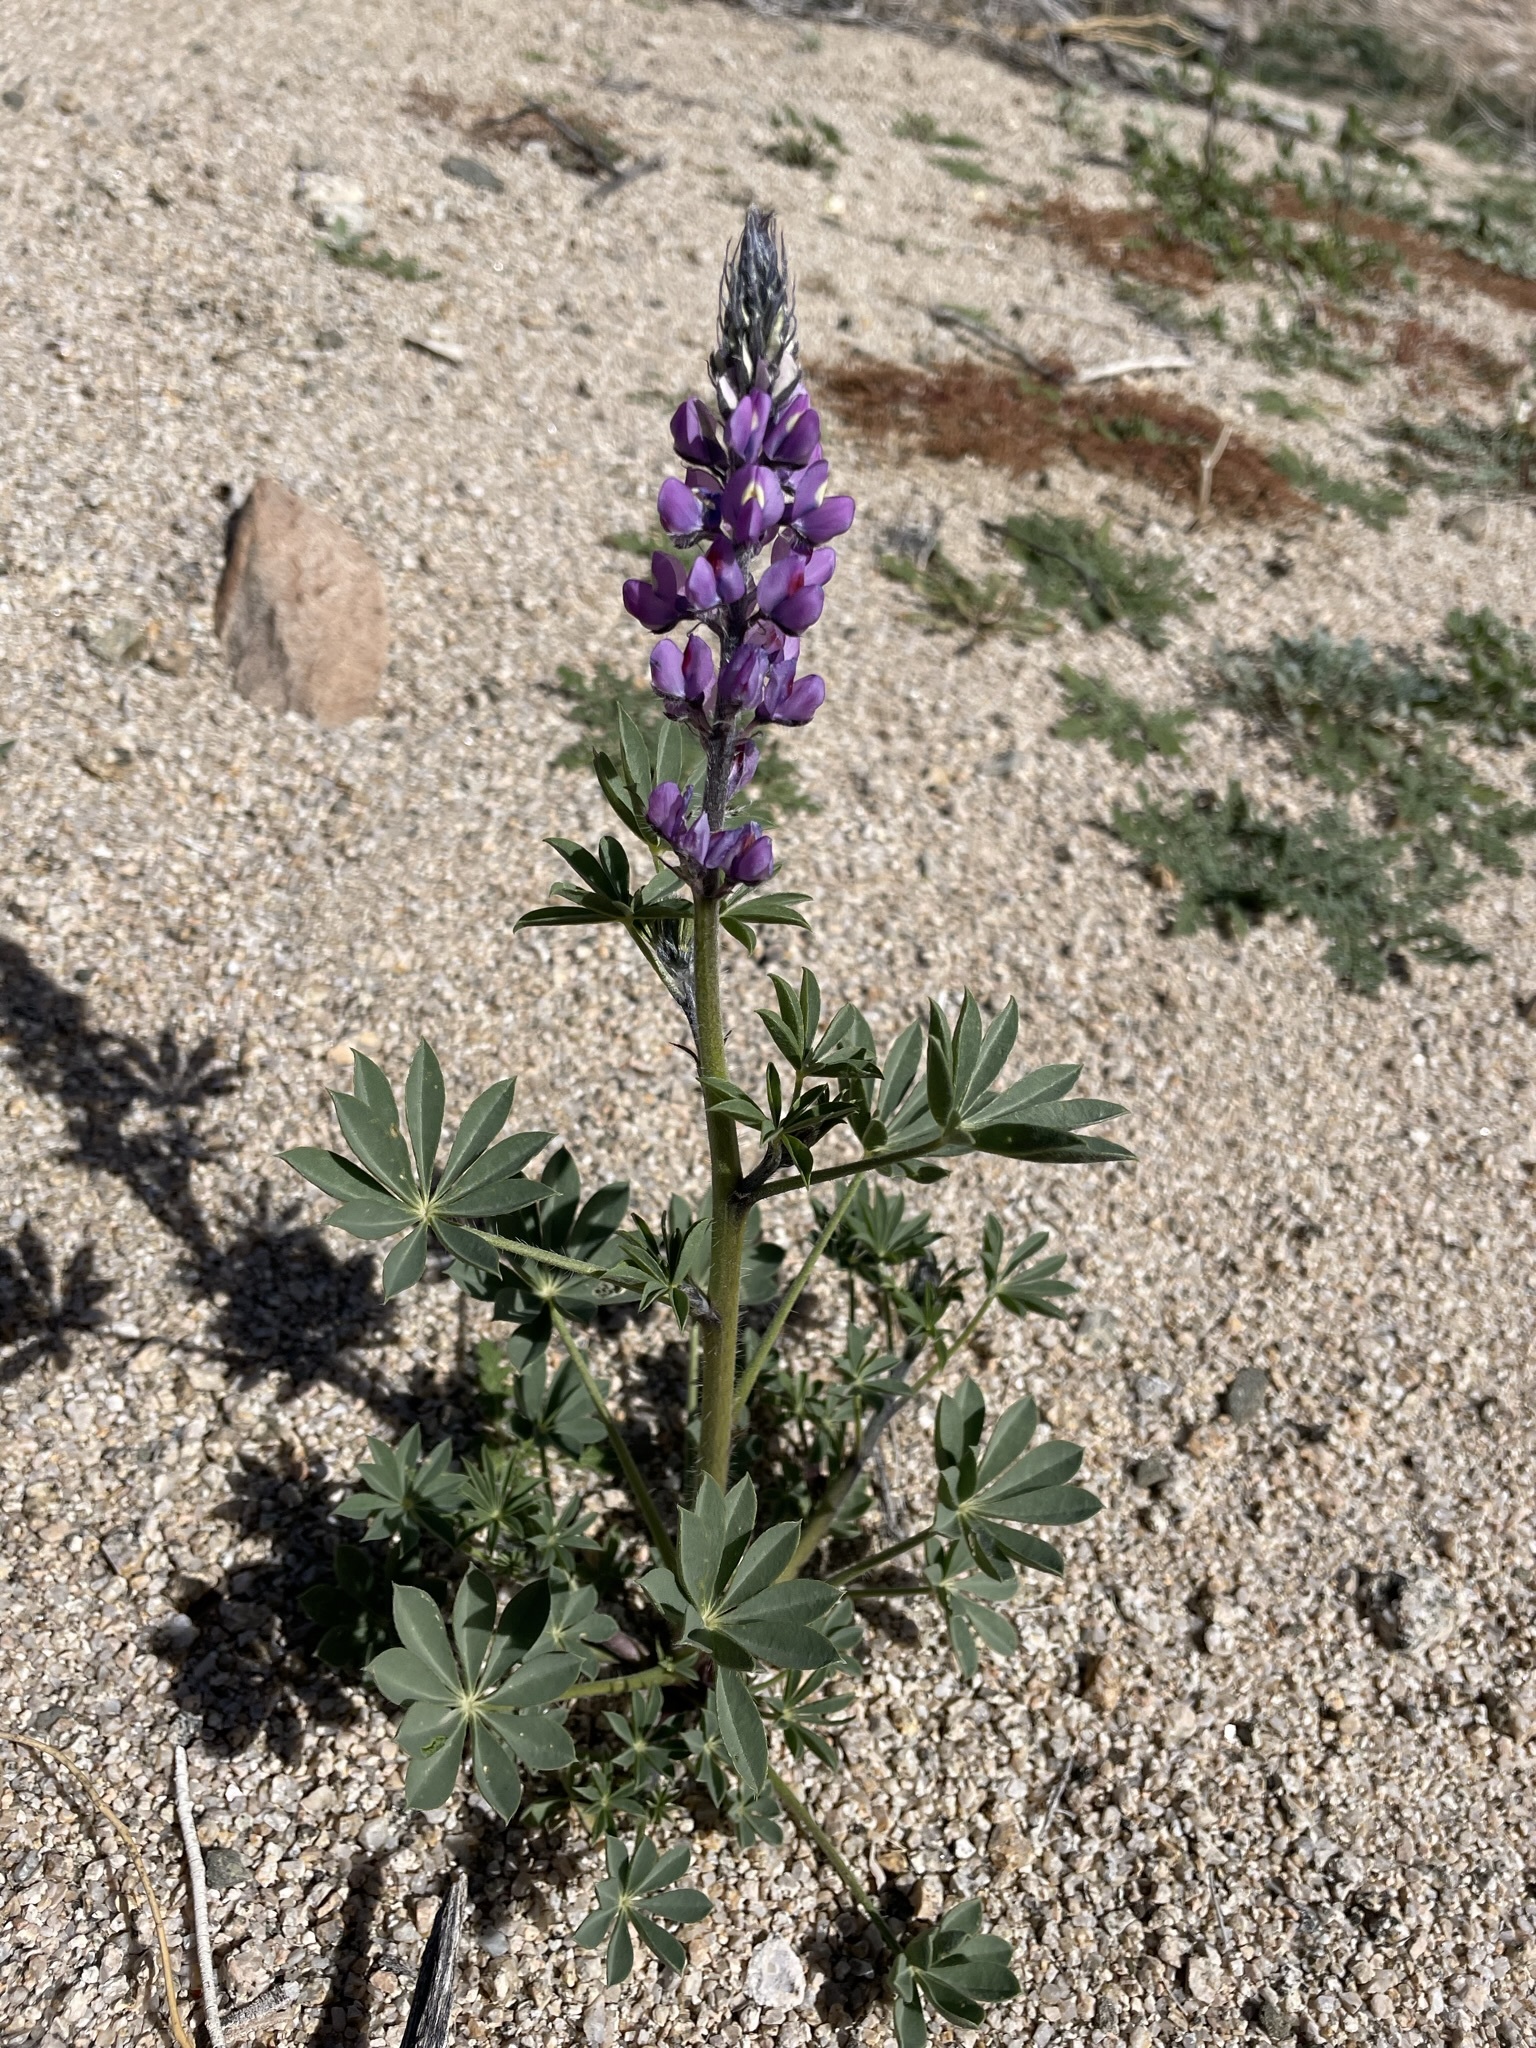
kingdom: Plantae
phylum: Tracheophyta
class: Magnoliopsida
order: Fabales
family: Fabaceae
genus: Lupinus
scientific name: Lupinus arizonicus
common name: Arizona lupine
